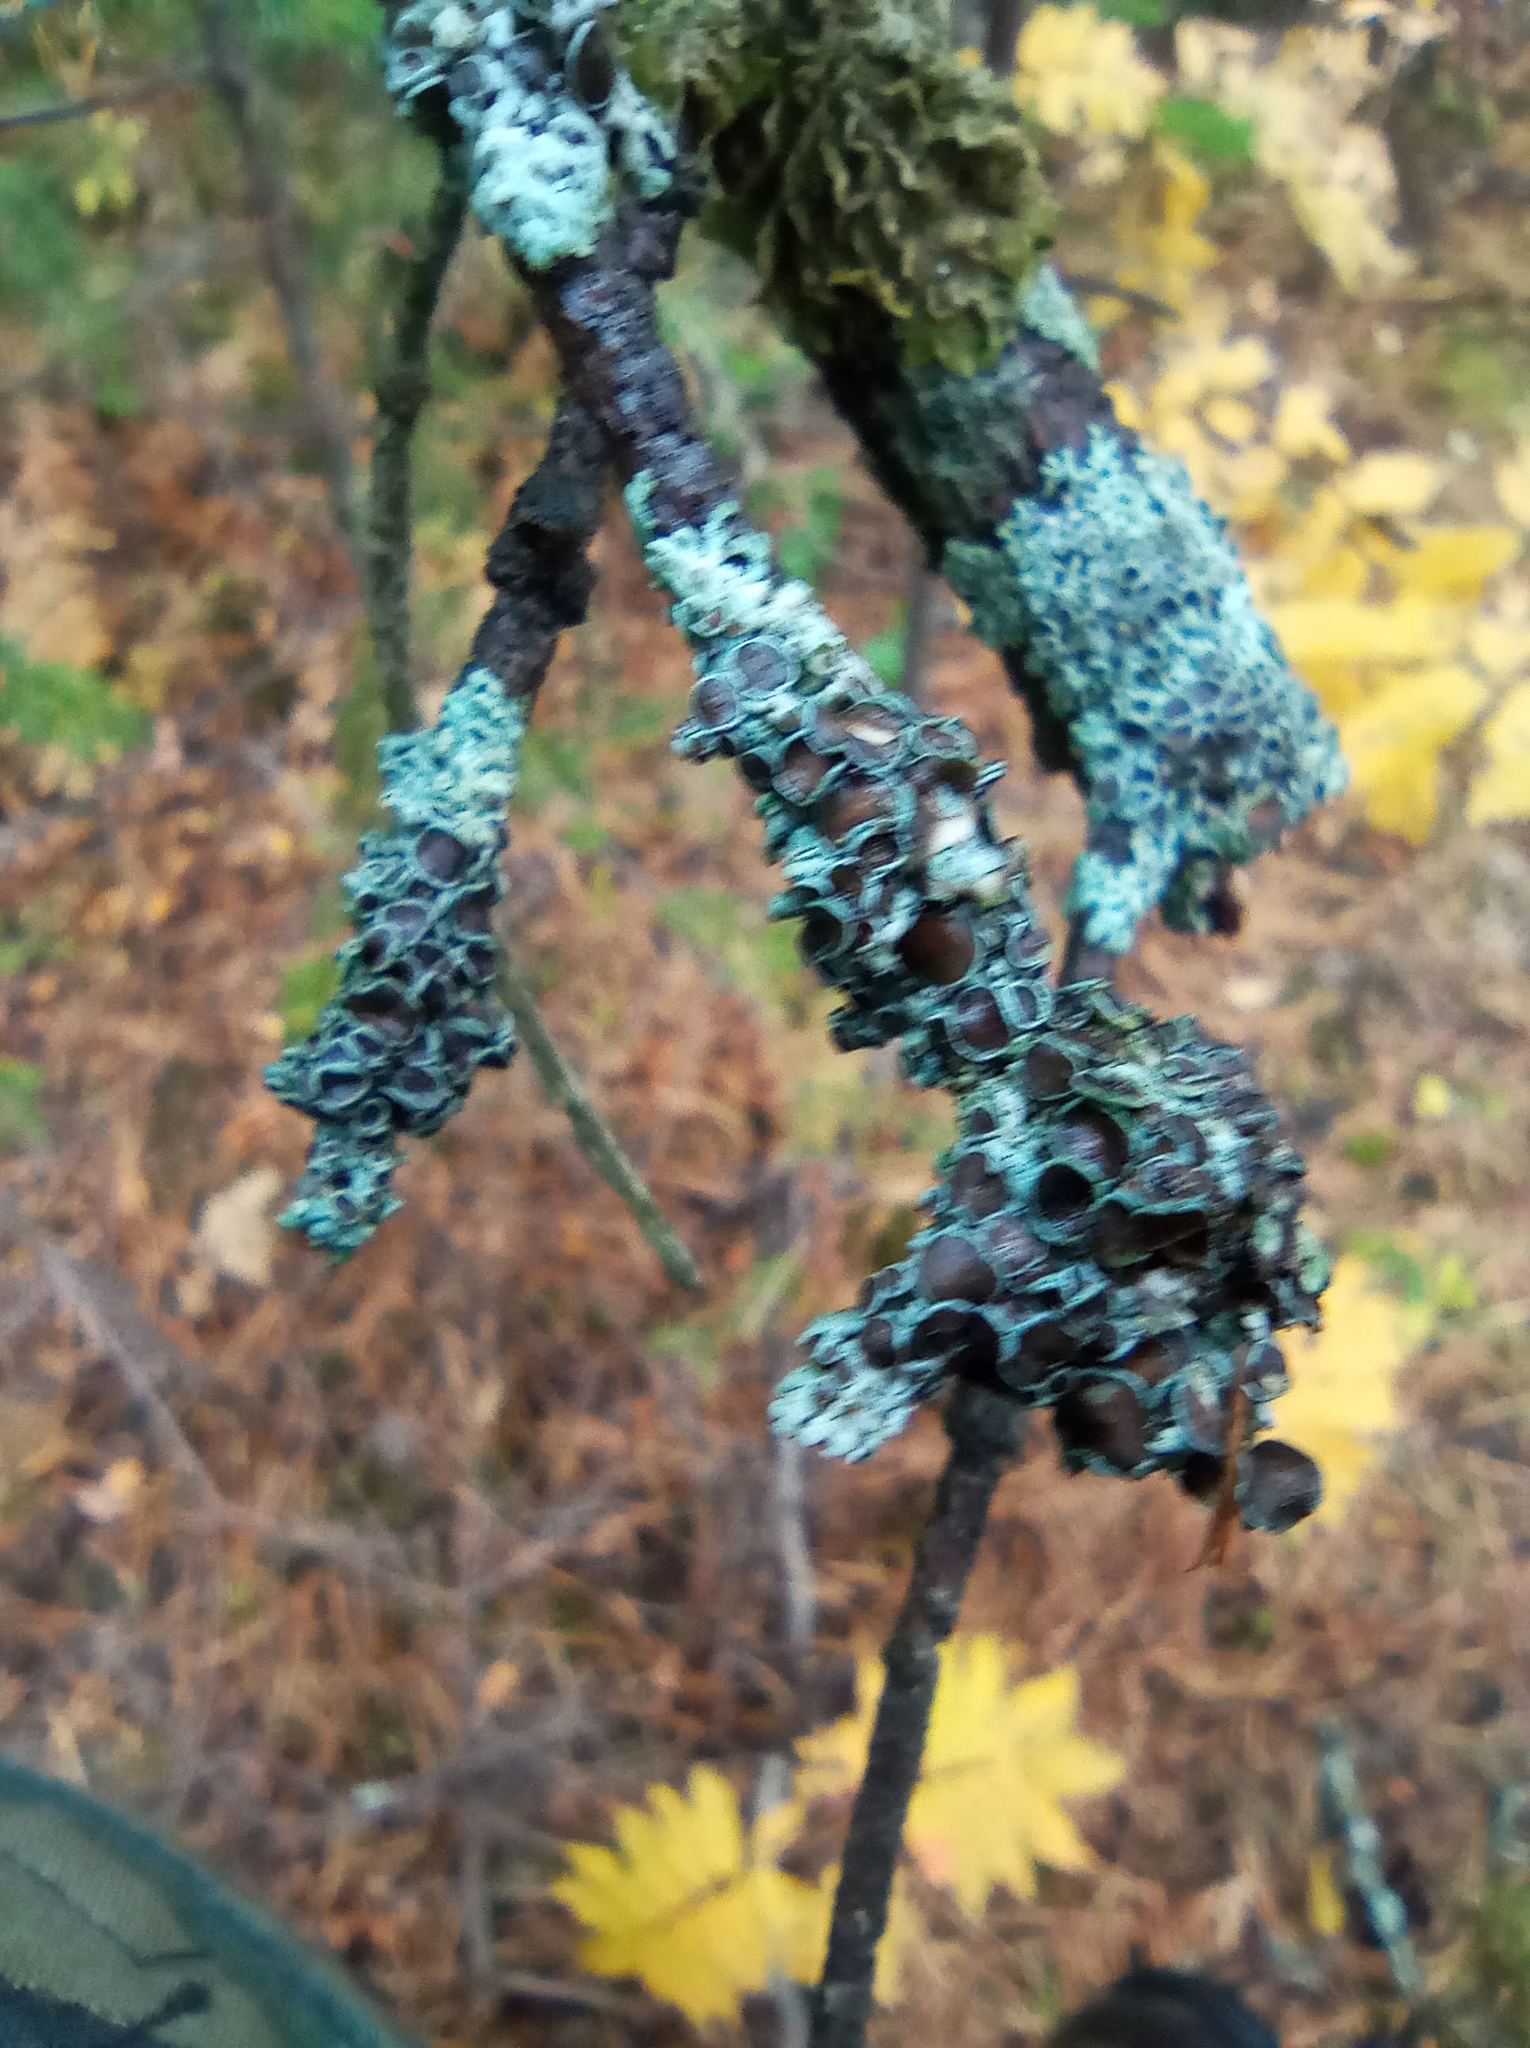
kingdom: Fungi
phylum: Ascomycota
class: Lecanoromycetes
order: Caliciales
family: Physciaceae
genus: Physcia
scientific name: Physcia stellaris
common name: Star rosette lichen
